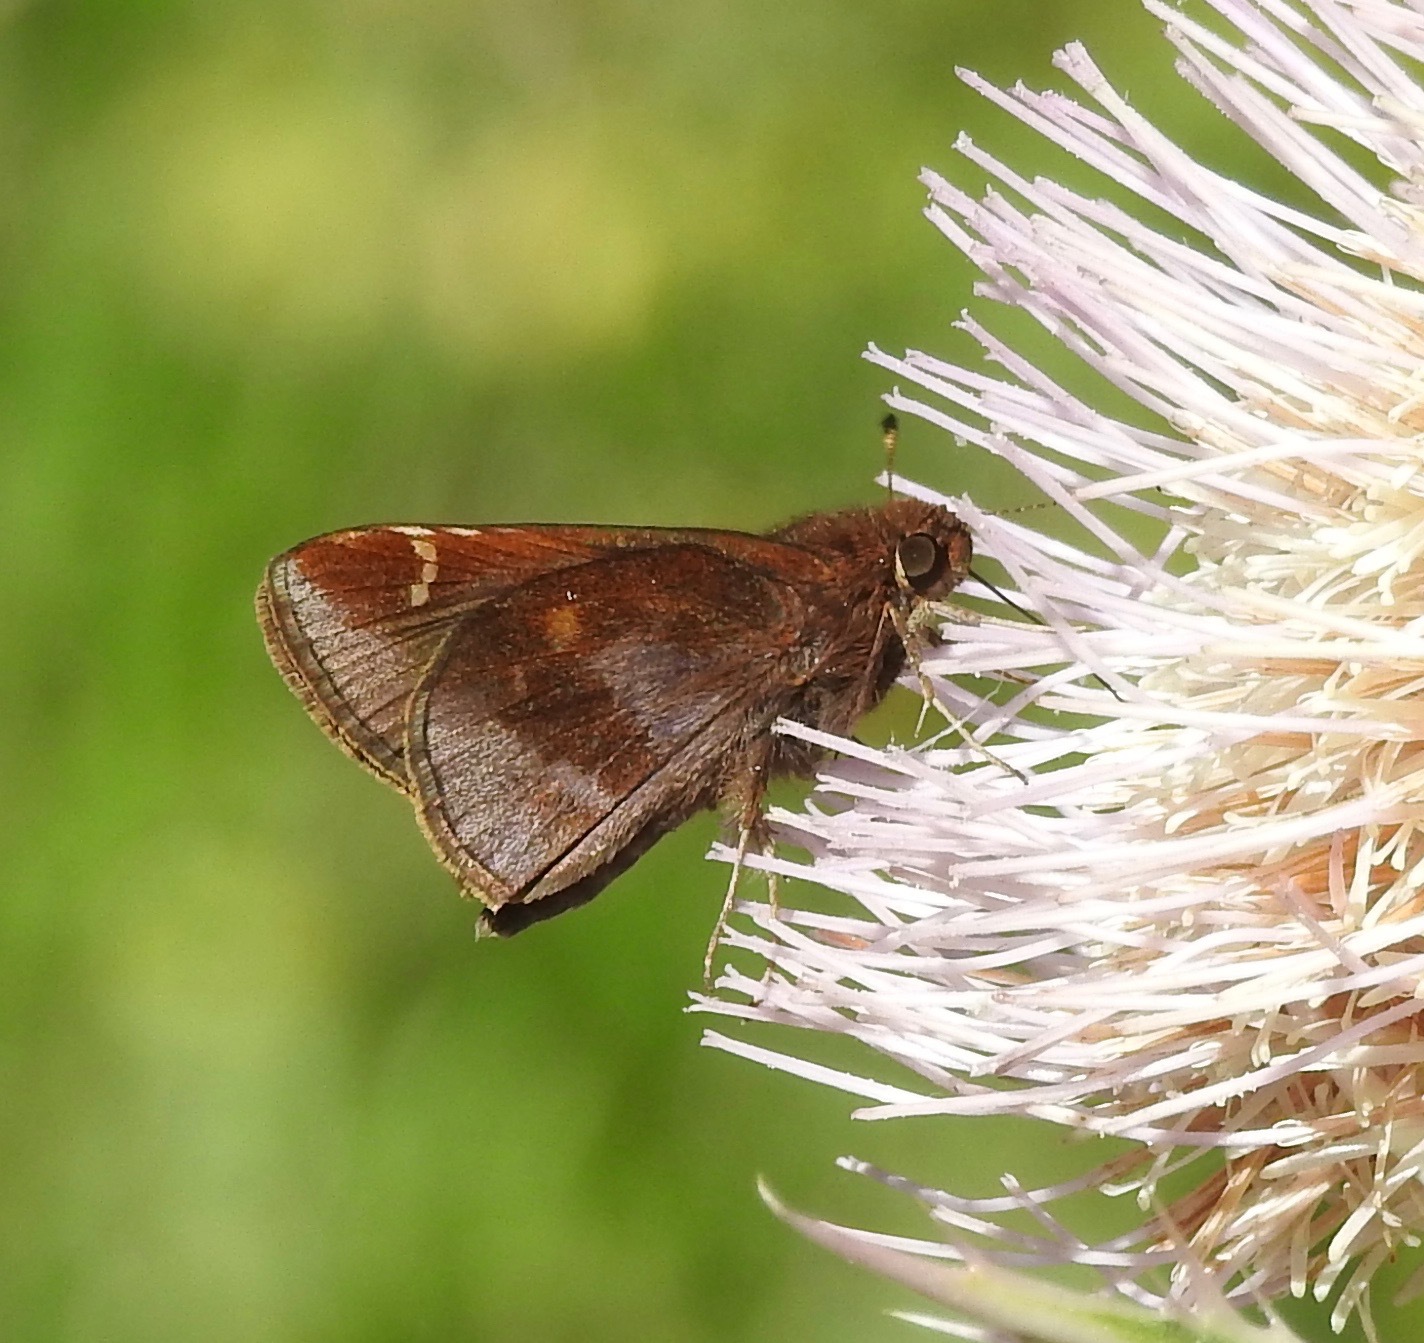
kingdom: Animalia
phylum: Arthropoda
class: Insecta
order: Lepidoptera
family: Hesperiidae
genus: Lerema
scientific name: Lerema accius
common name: Clouded skipper
